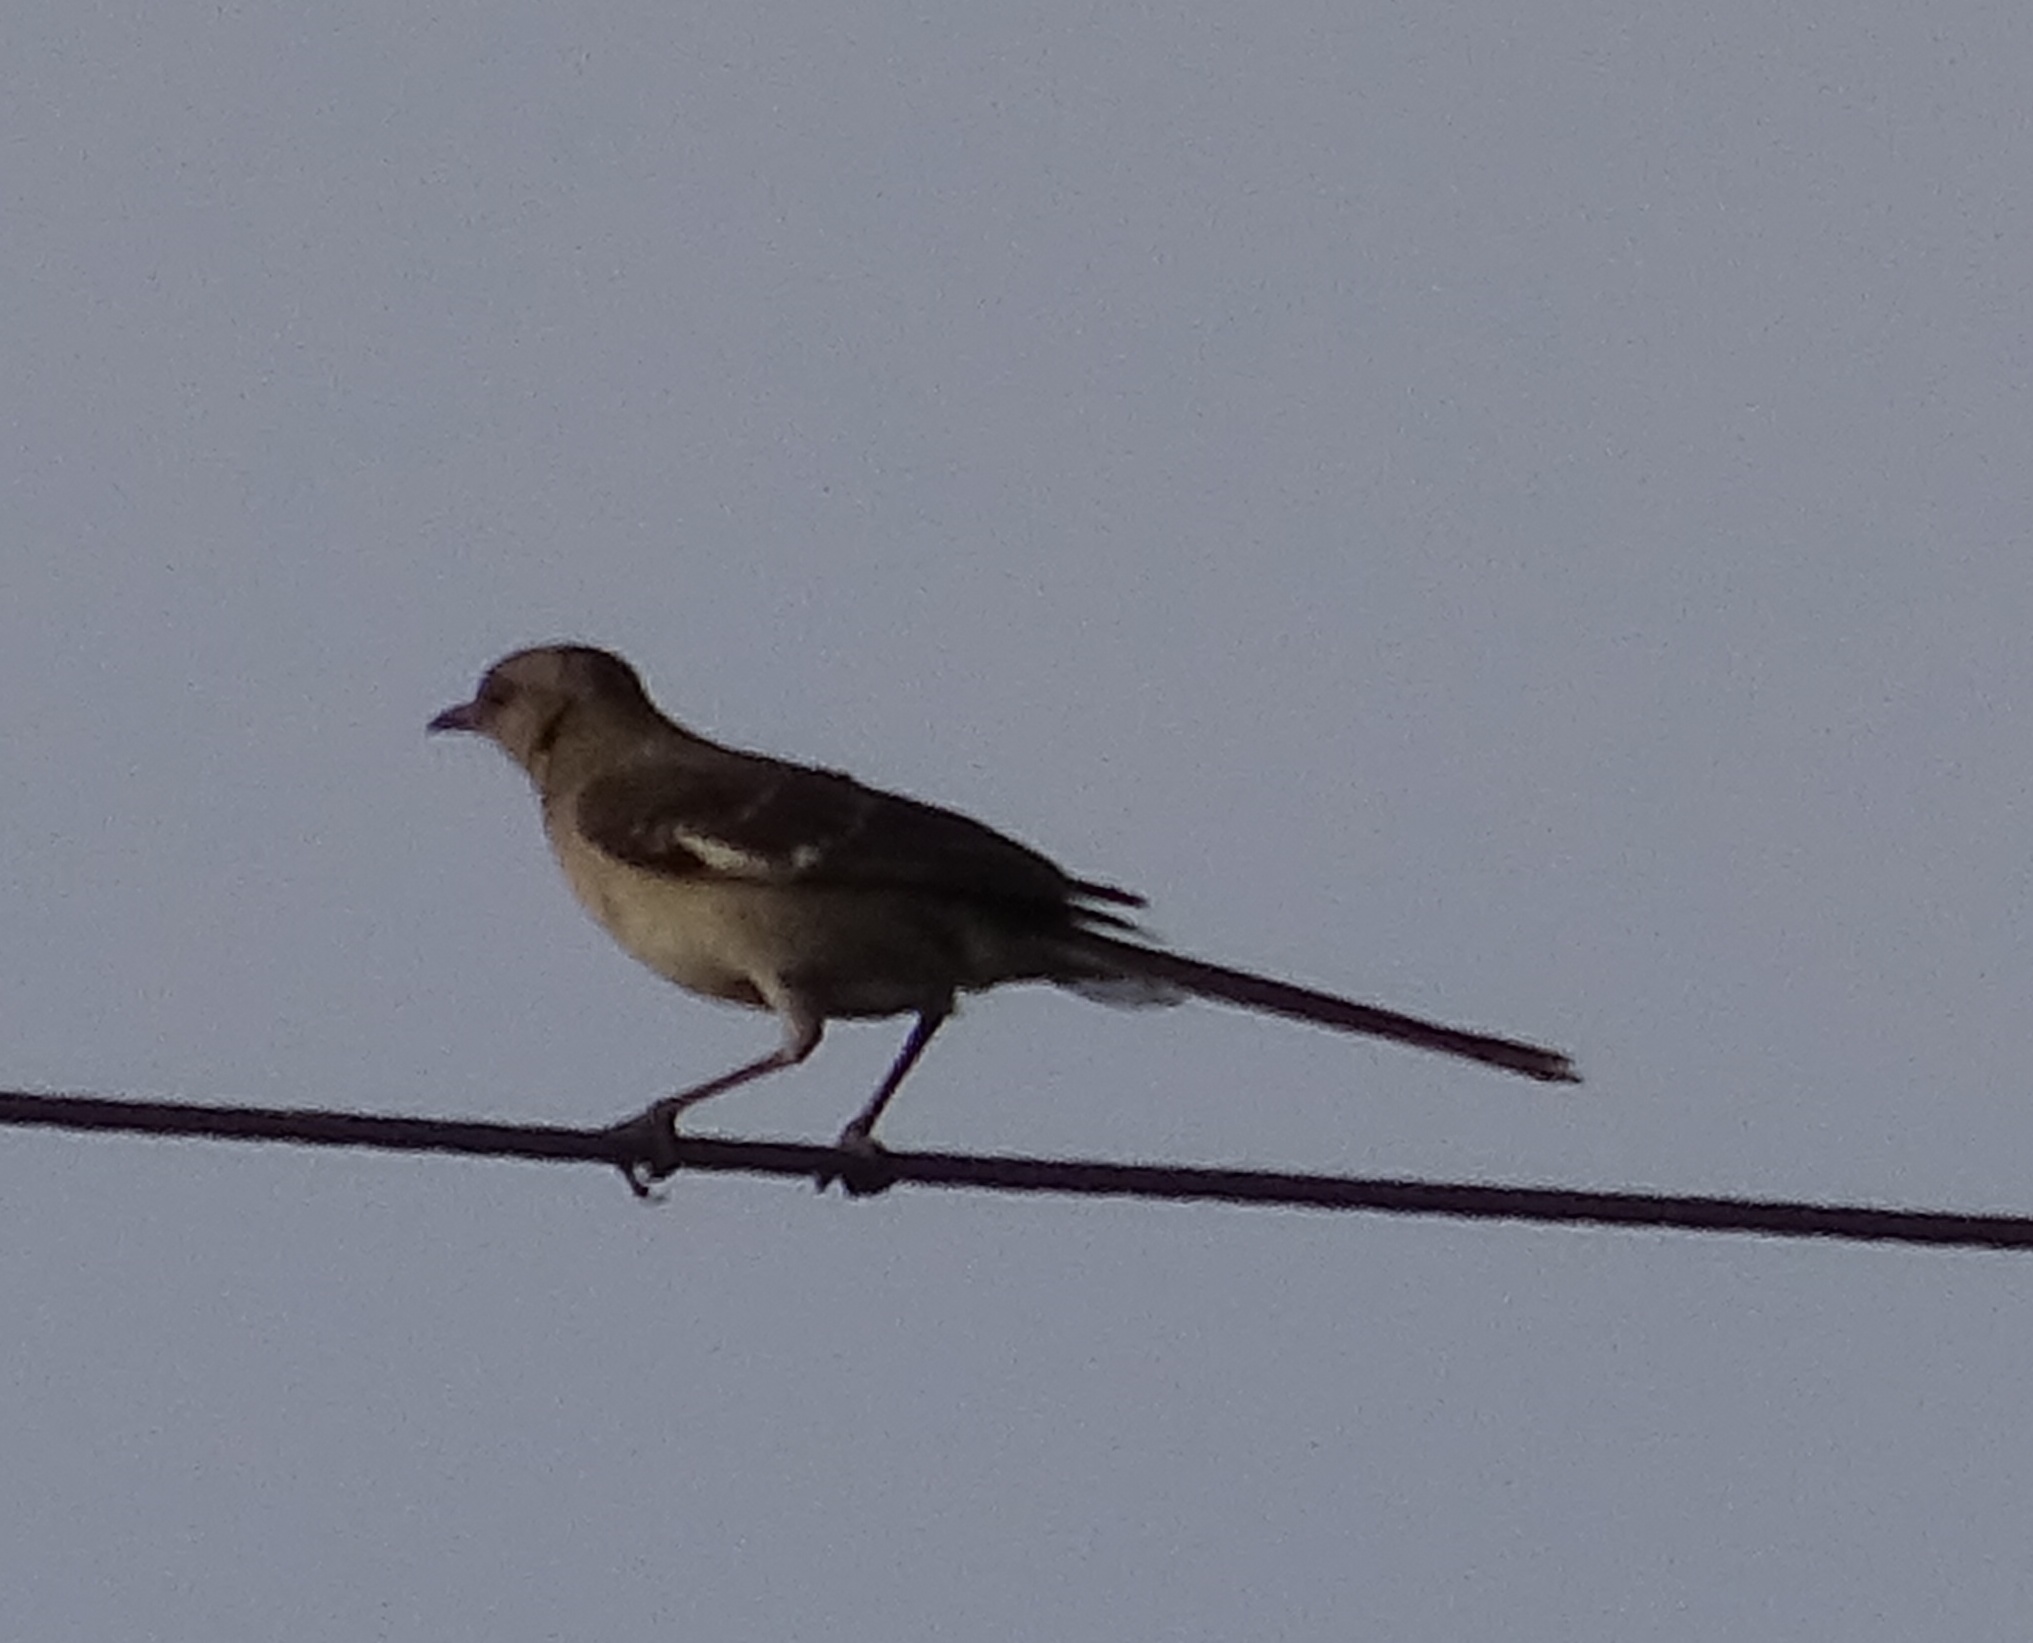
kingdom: Animalia
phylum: Chordata
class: Aves
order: Passeriformes
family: Mimidae
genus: Mimus
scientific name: Mimus polyglottos
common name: Northern mockingbird
